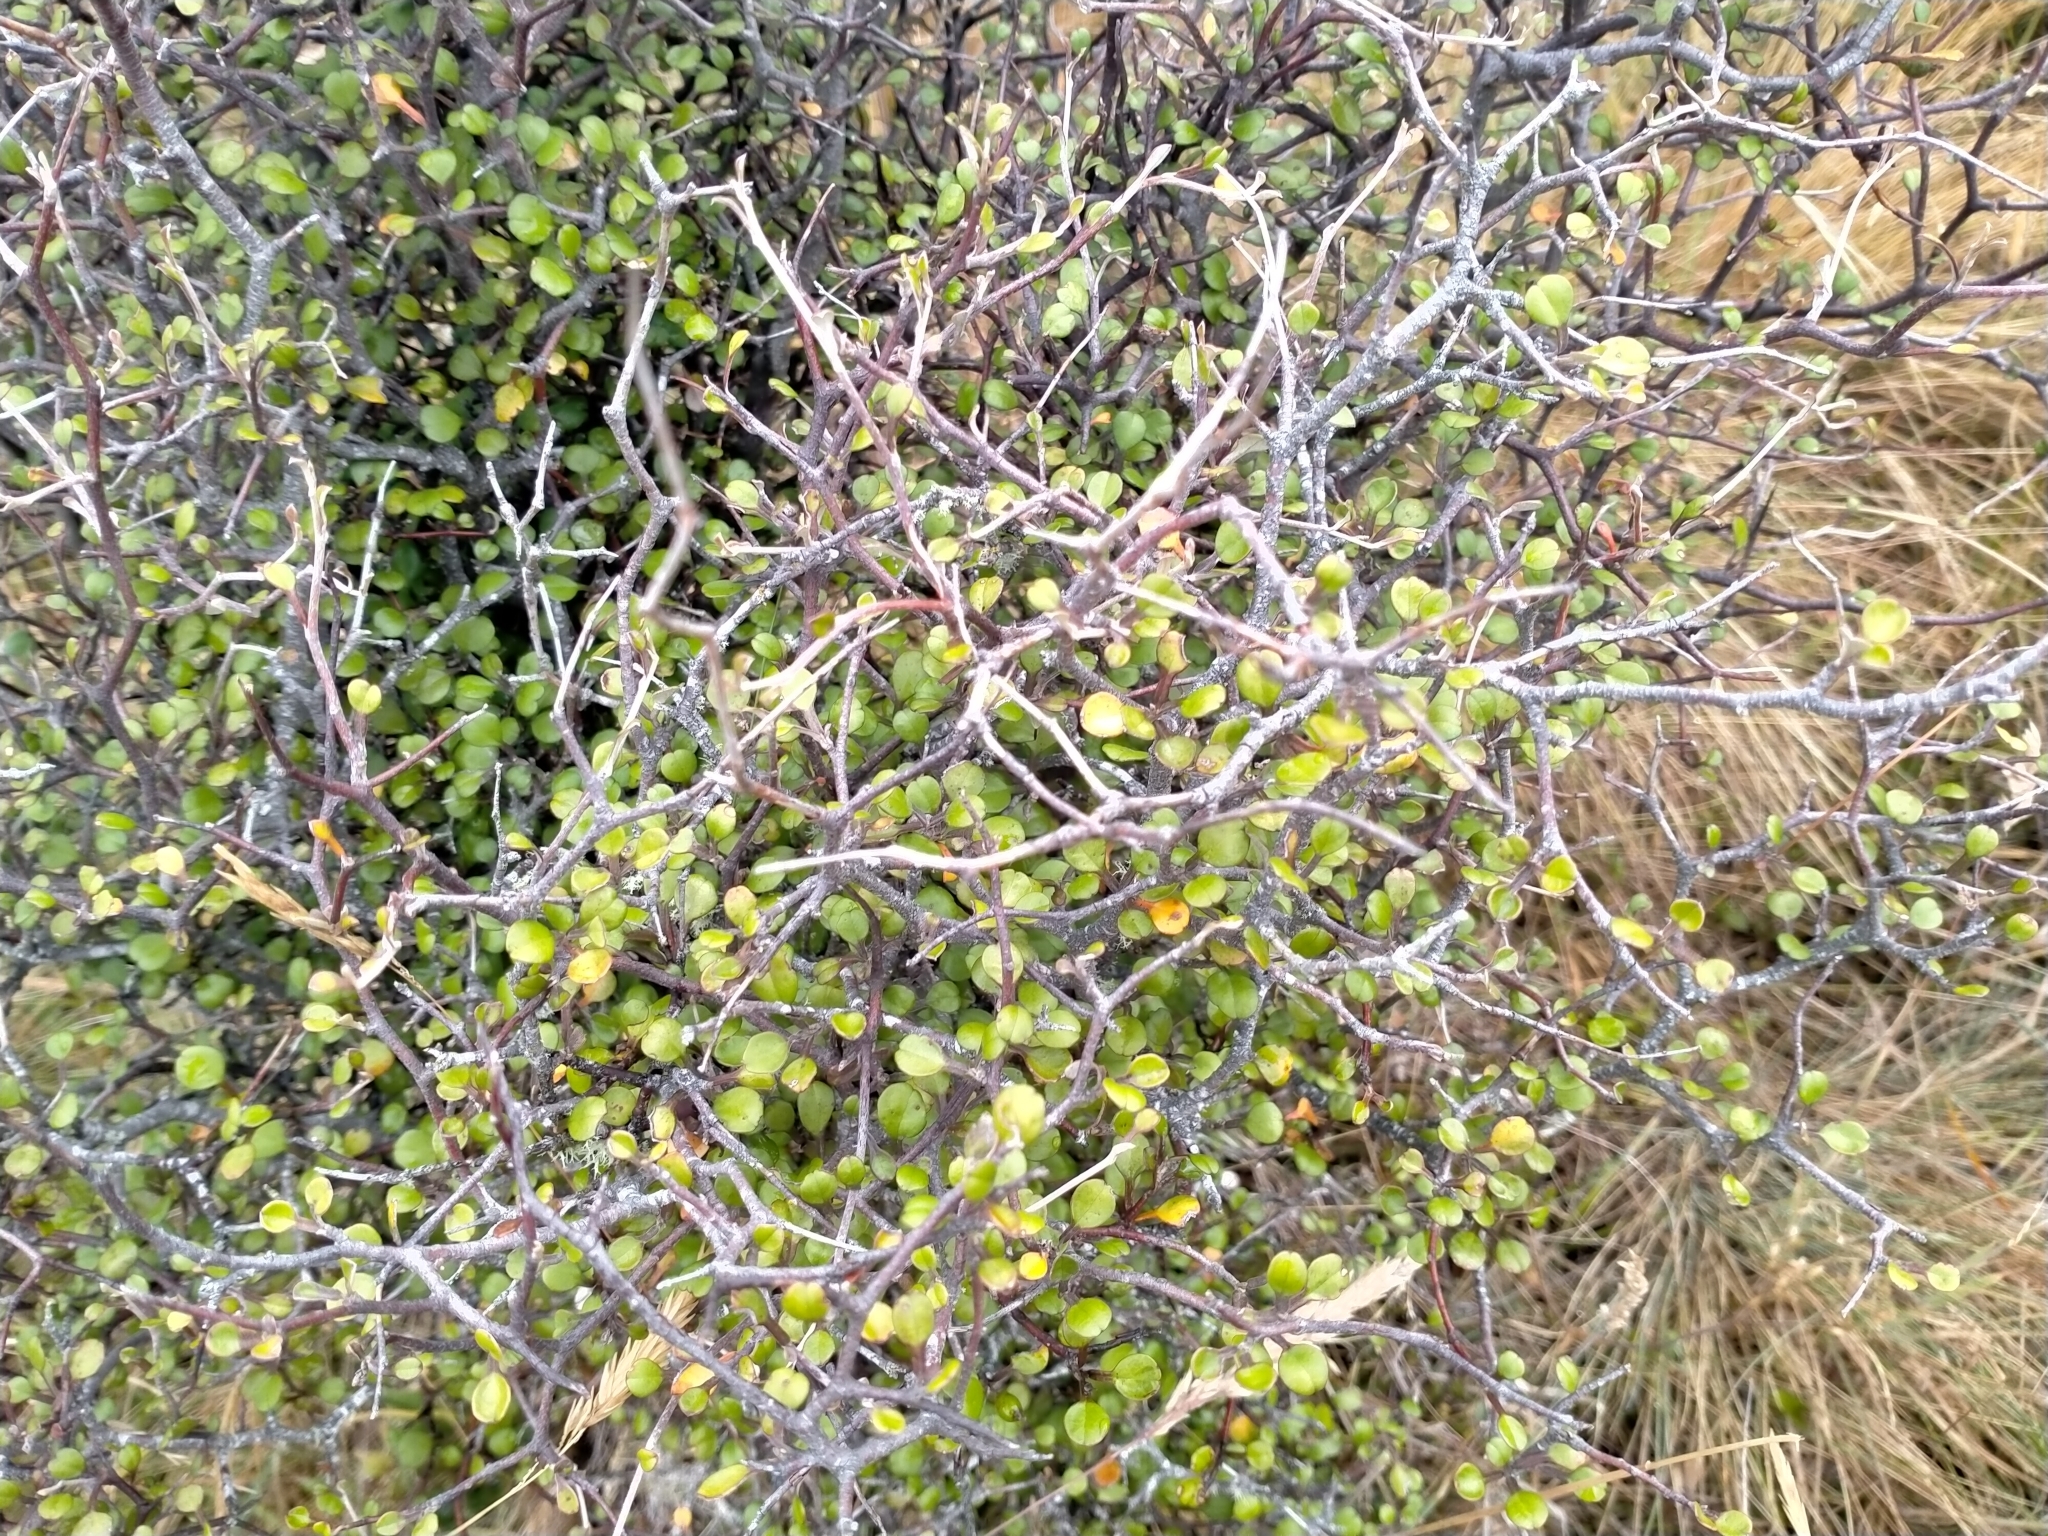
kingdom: Plantae
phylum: Tracheophyta
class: Magnoliopsida
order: Asterales
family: Argophyllaceae
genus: Corokia
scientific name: Corokia cotoneaster
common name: Wire nettingbush
